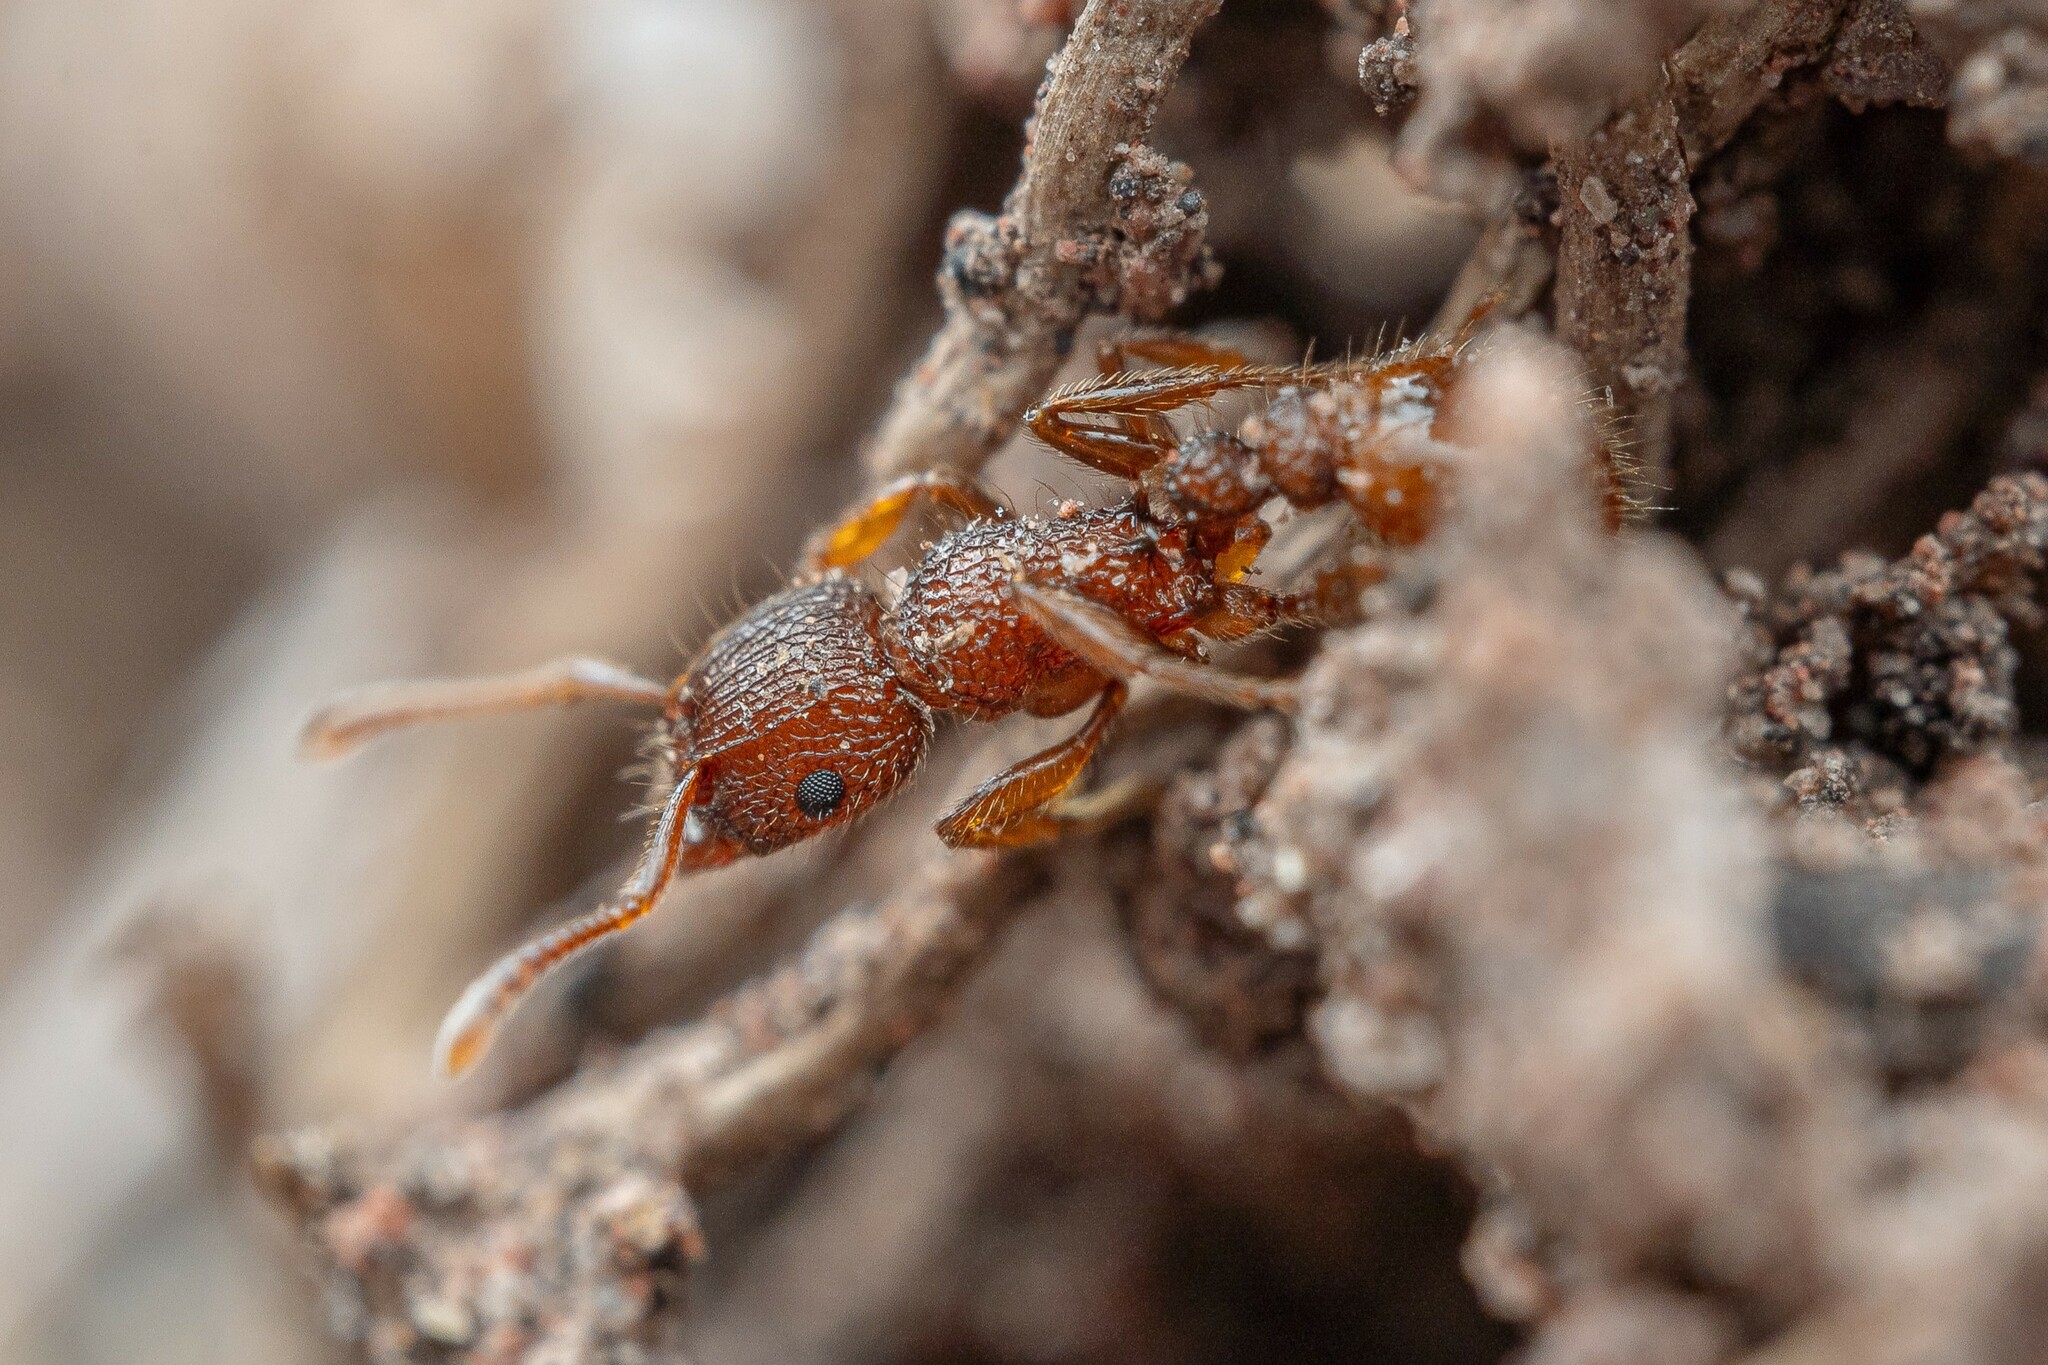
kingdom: Animalia
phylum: Arthropoda
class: Insecta
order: Hymenoptera
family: Formicidae
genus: Tetramorium
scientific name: Tetramorium spinosum
